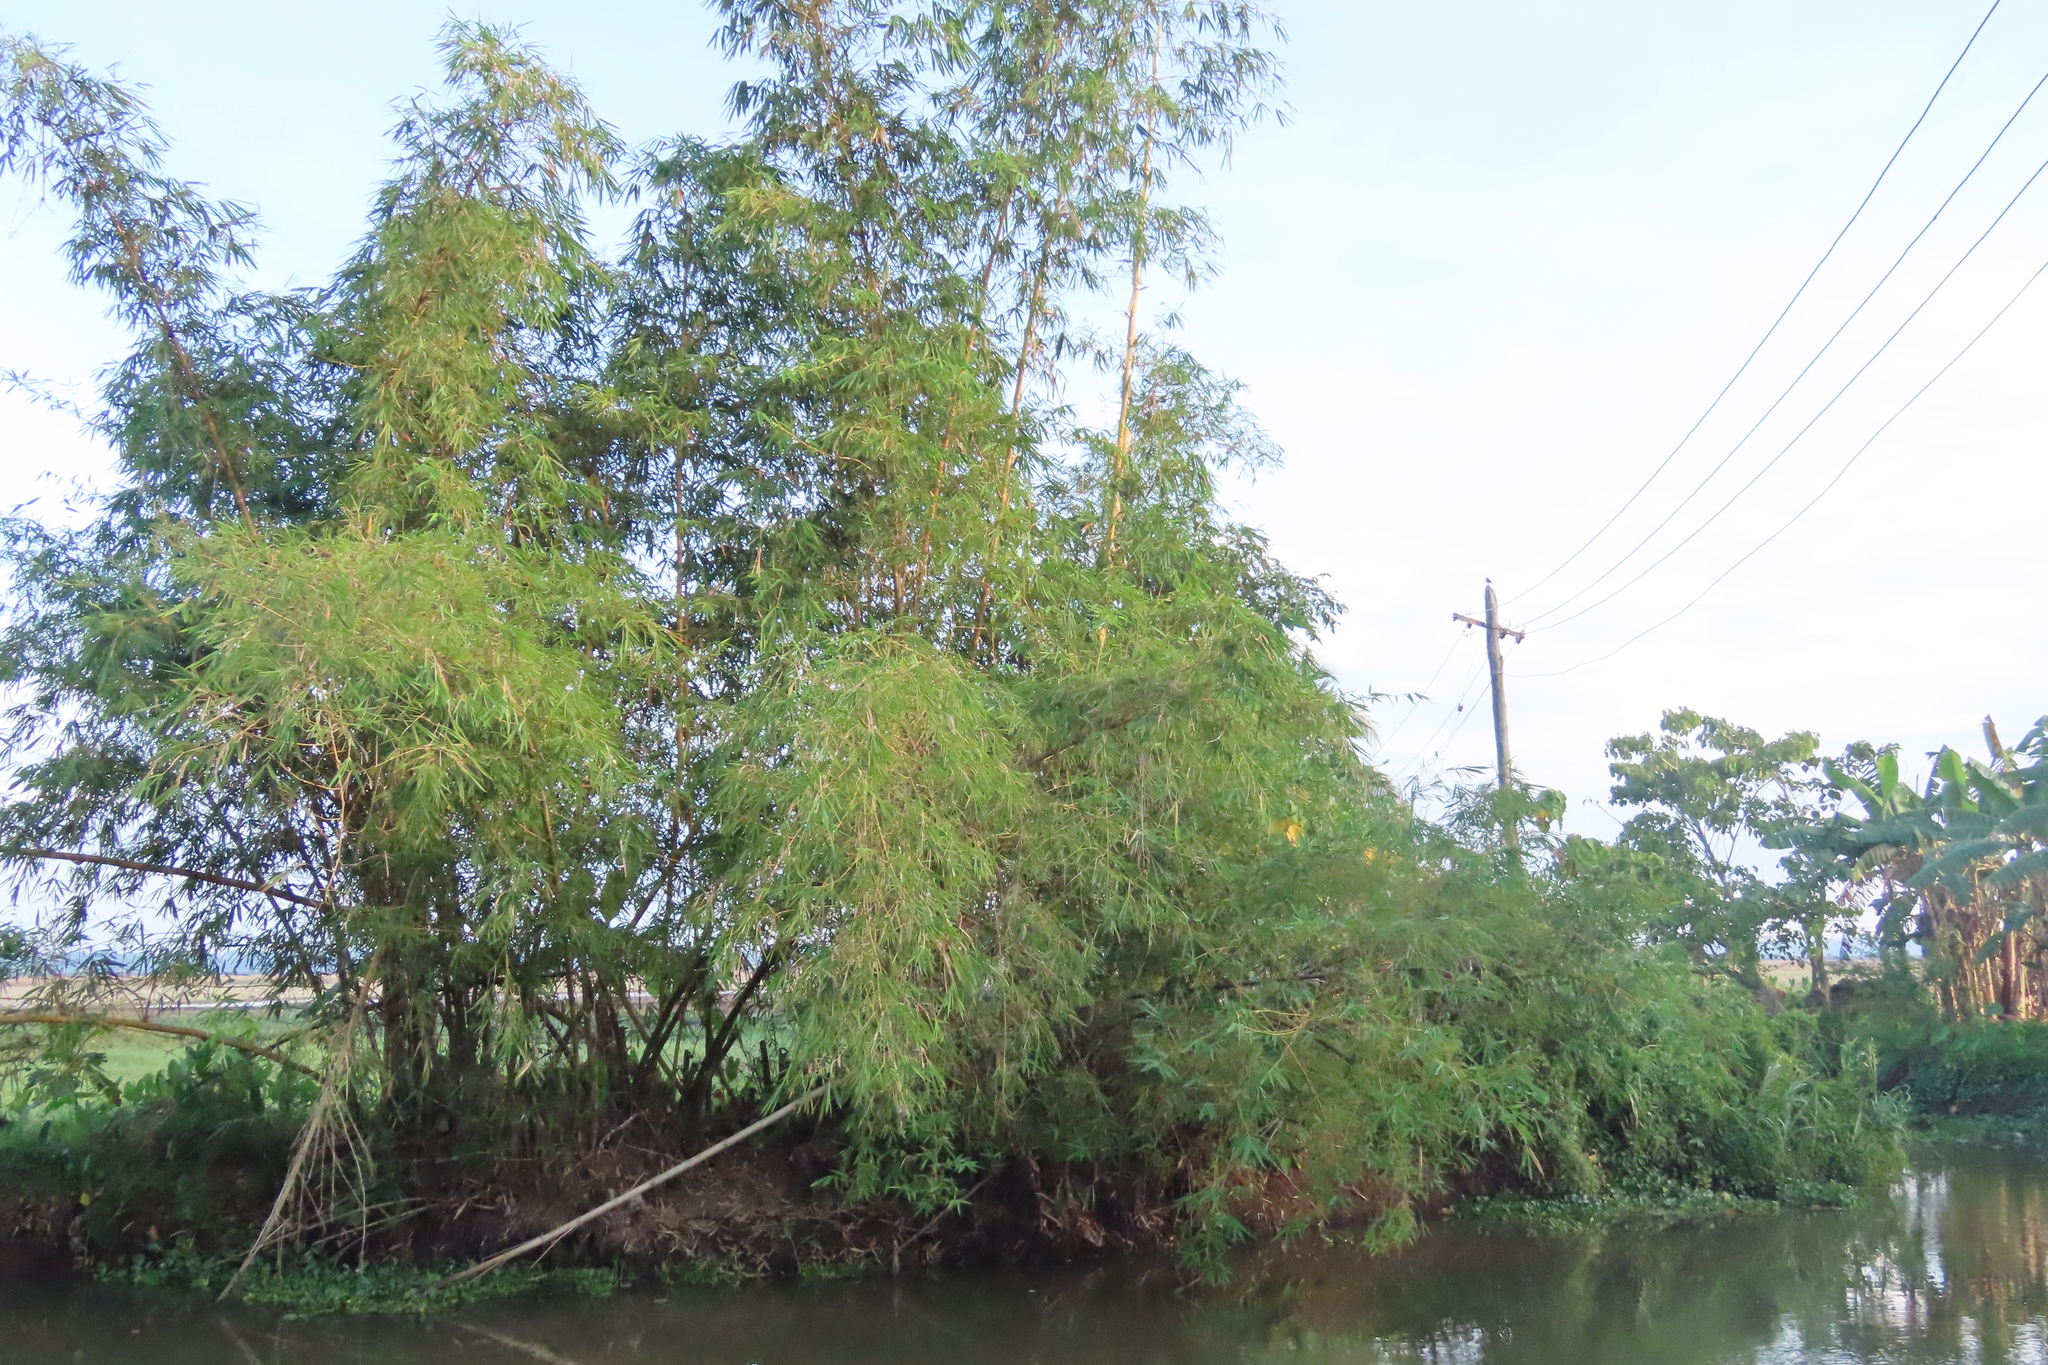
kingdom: Plantae
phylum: Tracheophyta
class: Liliopsida
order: Poales
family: Poaceae
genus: Bambusa
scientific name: Bambusa vulgaris
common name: Common bamboo
